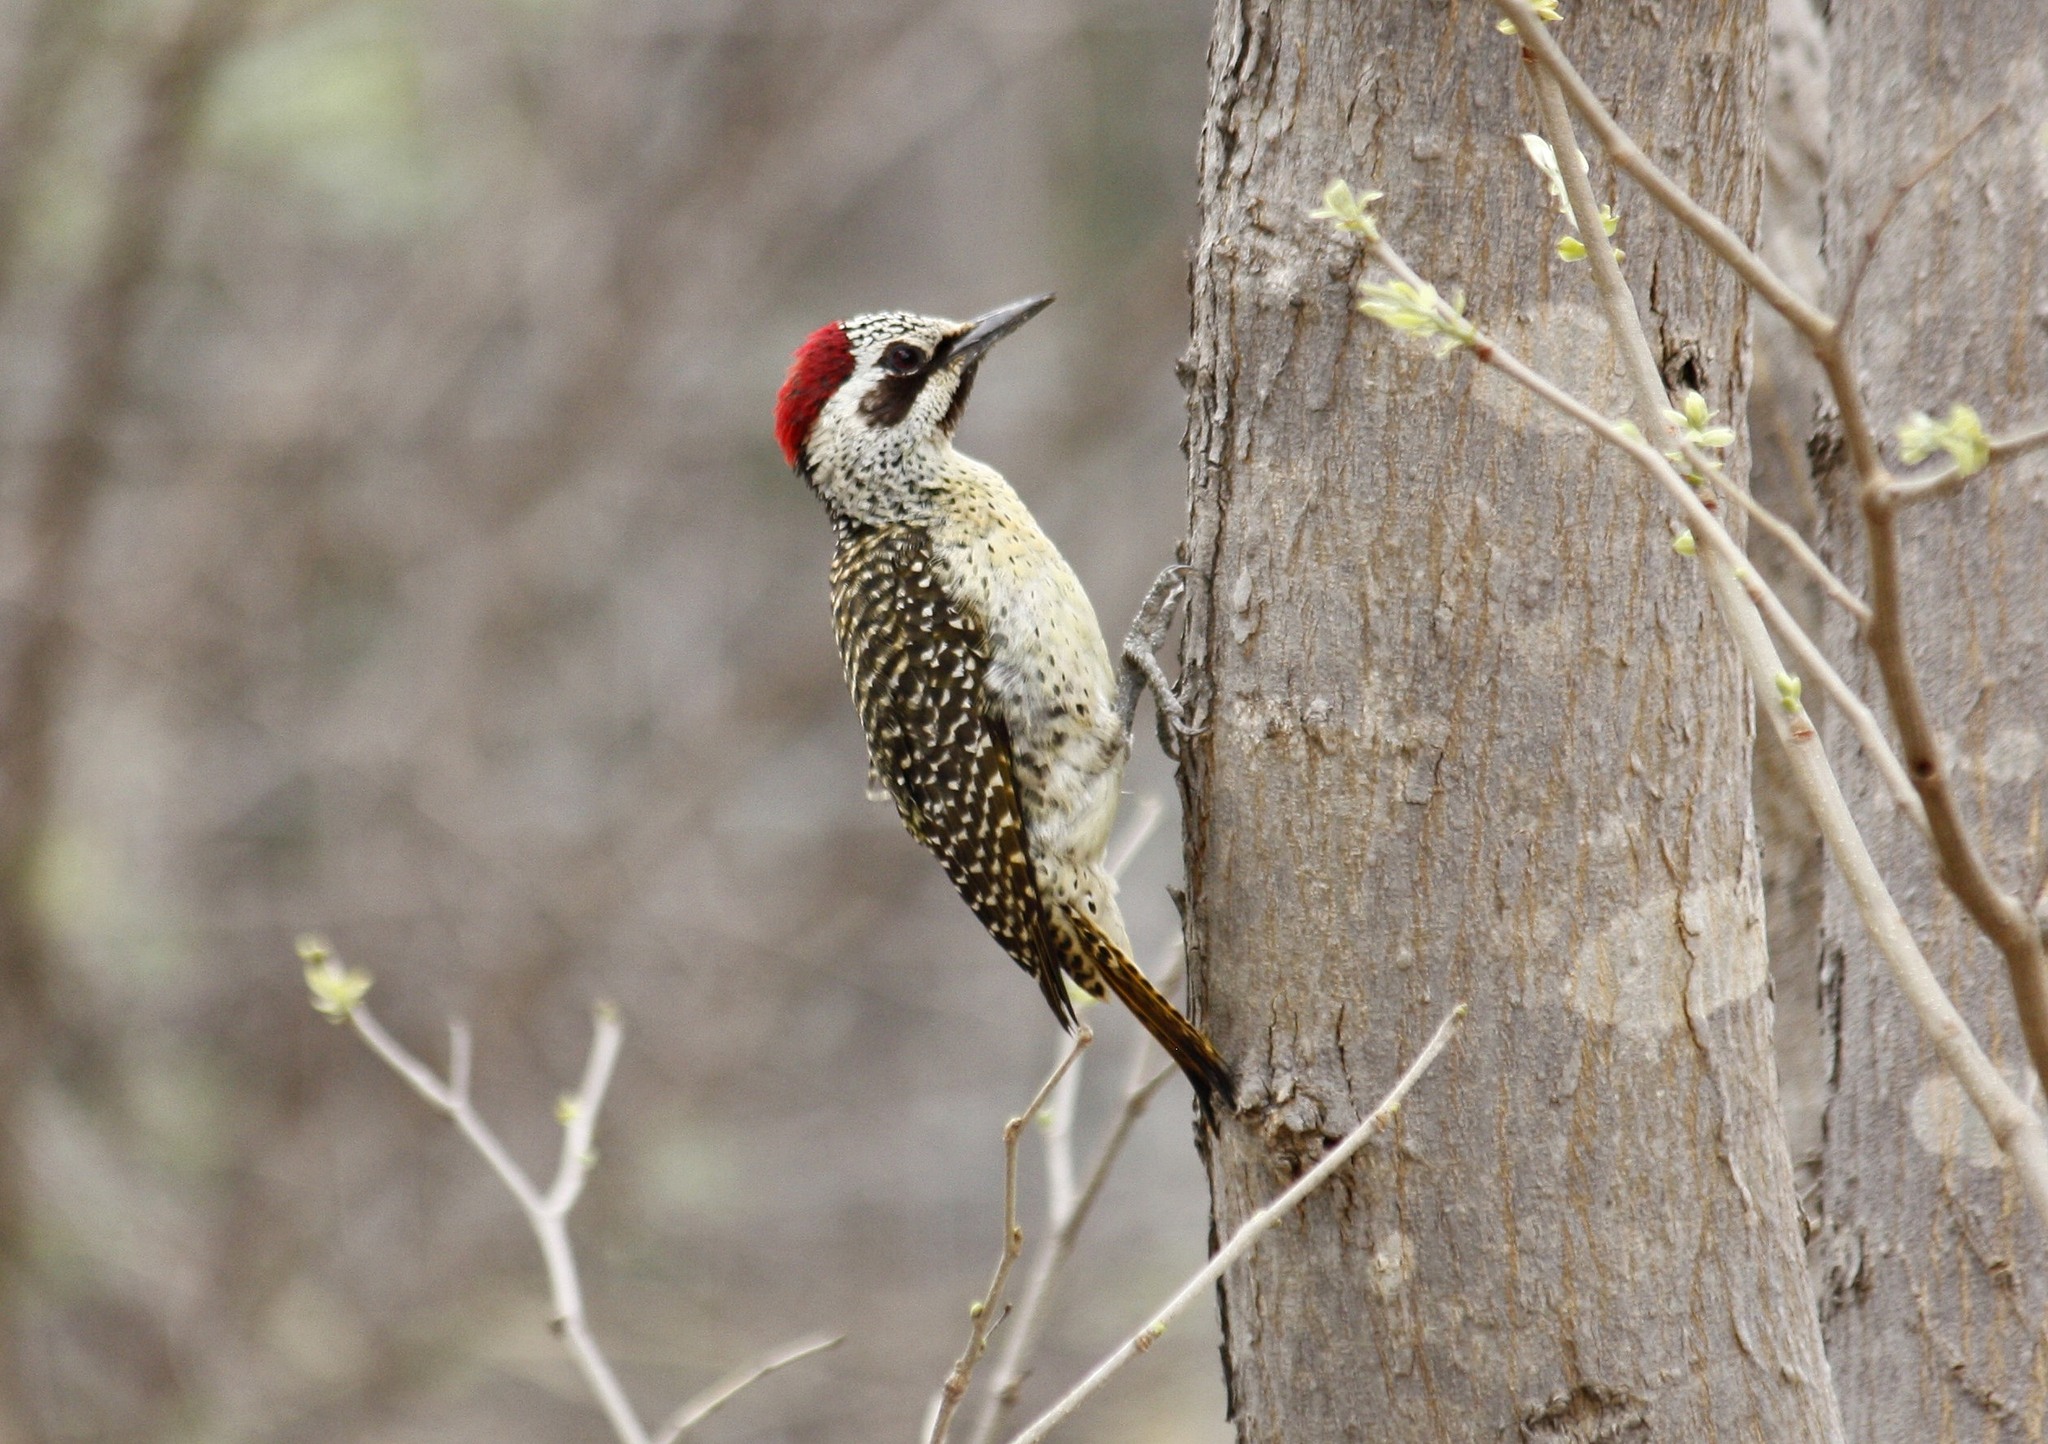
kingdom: Animalia
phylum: Chordata
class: Aves
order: Piciformes
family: Picidae
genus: Campethera
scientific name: Campethera bennettii
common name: Bennett's woodpecker
